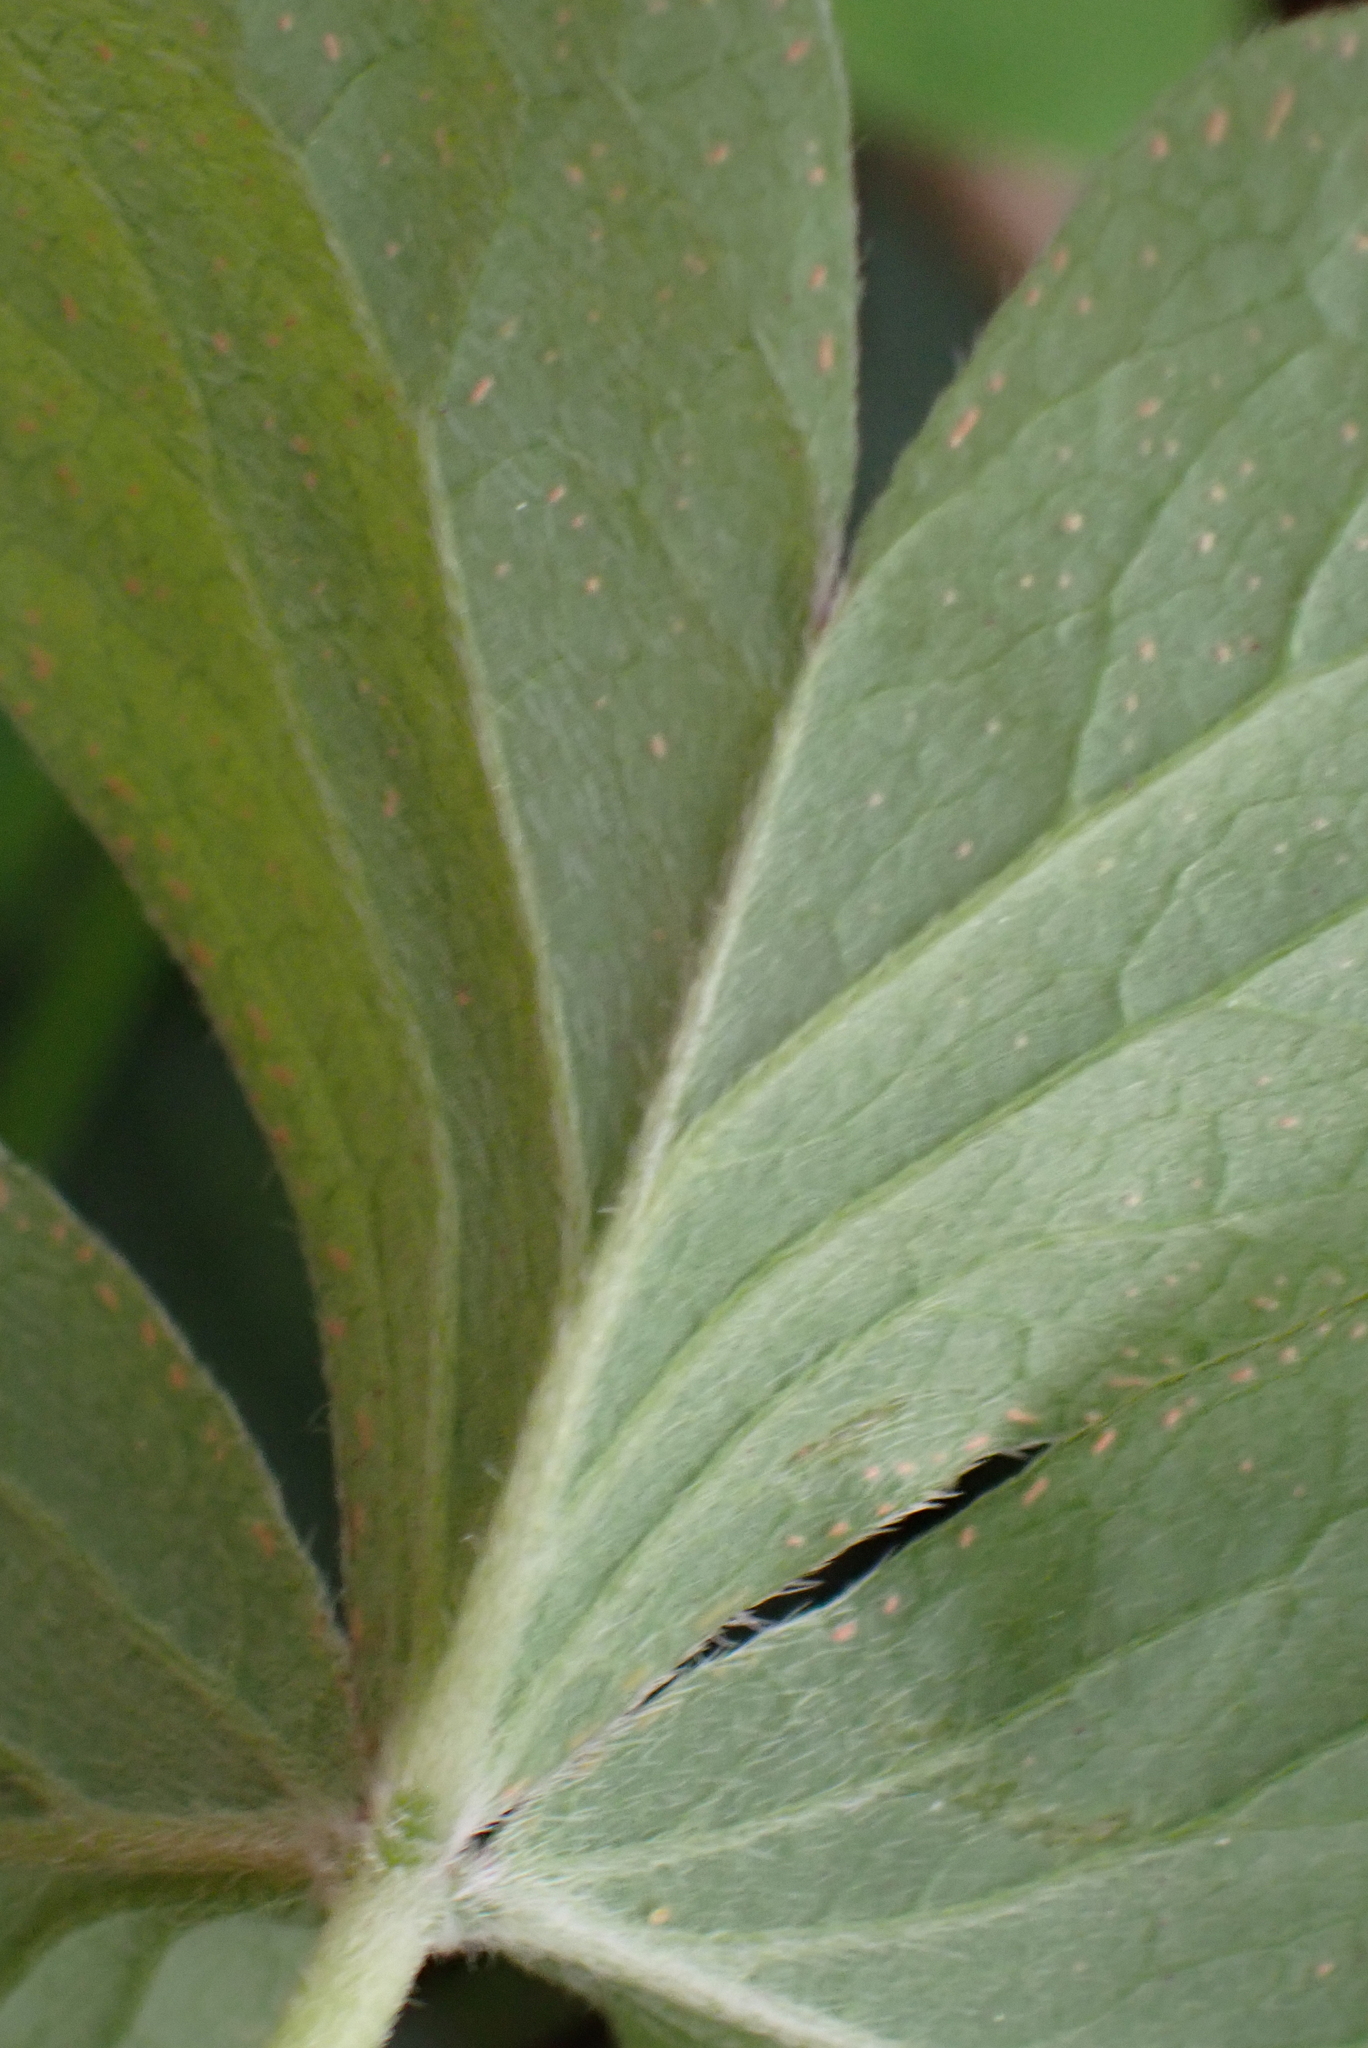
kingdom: Plantae
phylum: Tracheophyta
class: Magnoliopsida
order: Oxalidales
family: Oxalidaceae
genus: Oxalis
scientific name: Oxalis articulata
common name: Pink-sorrel
